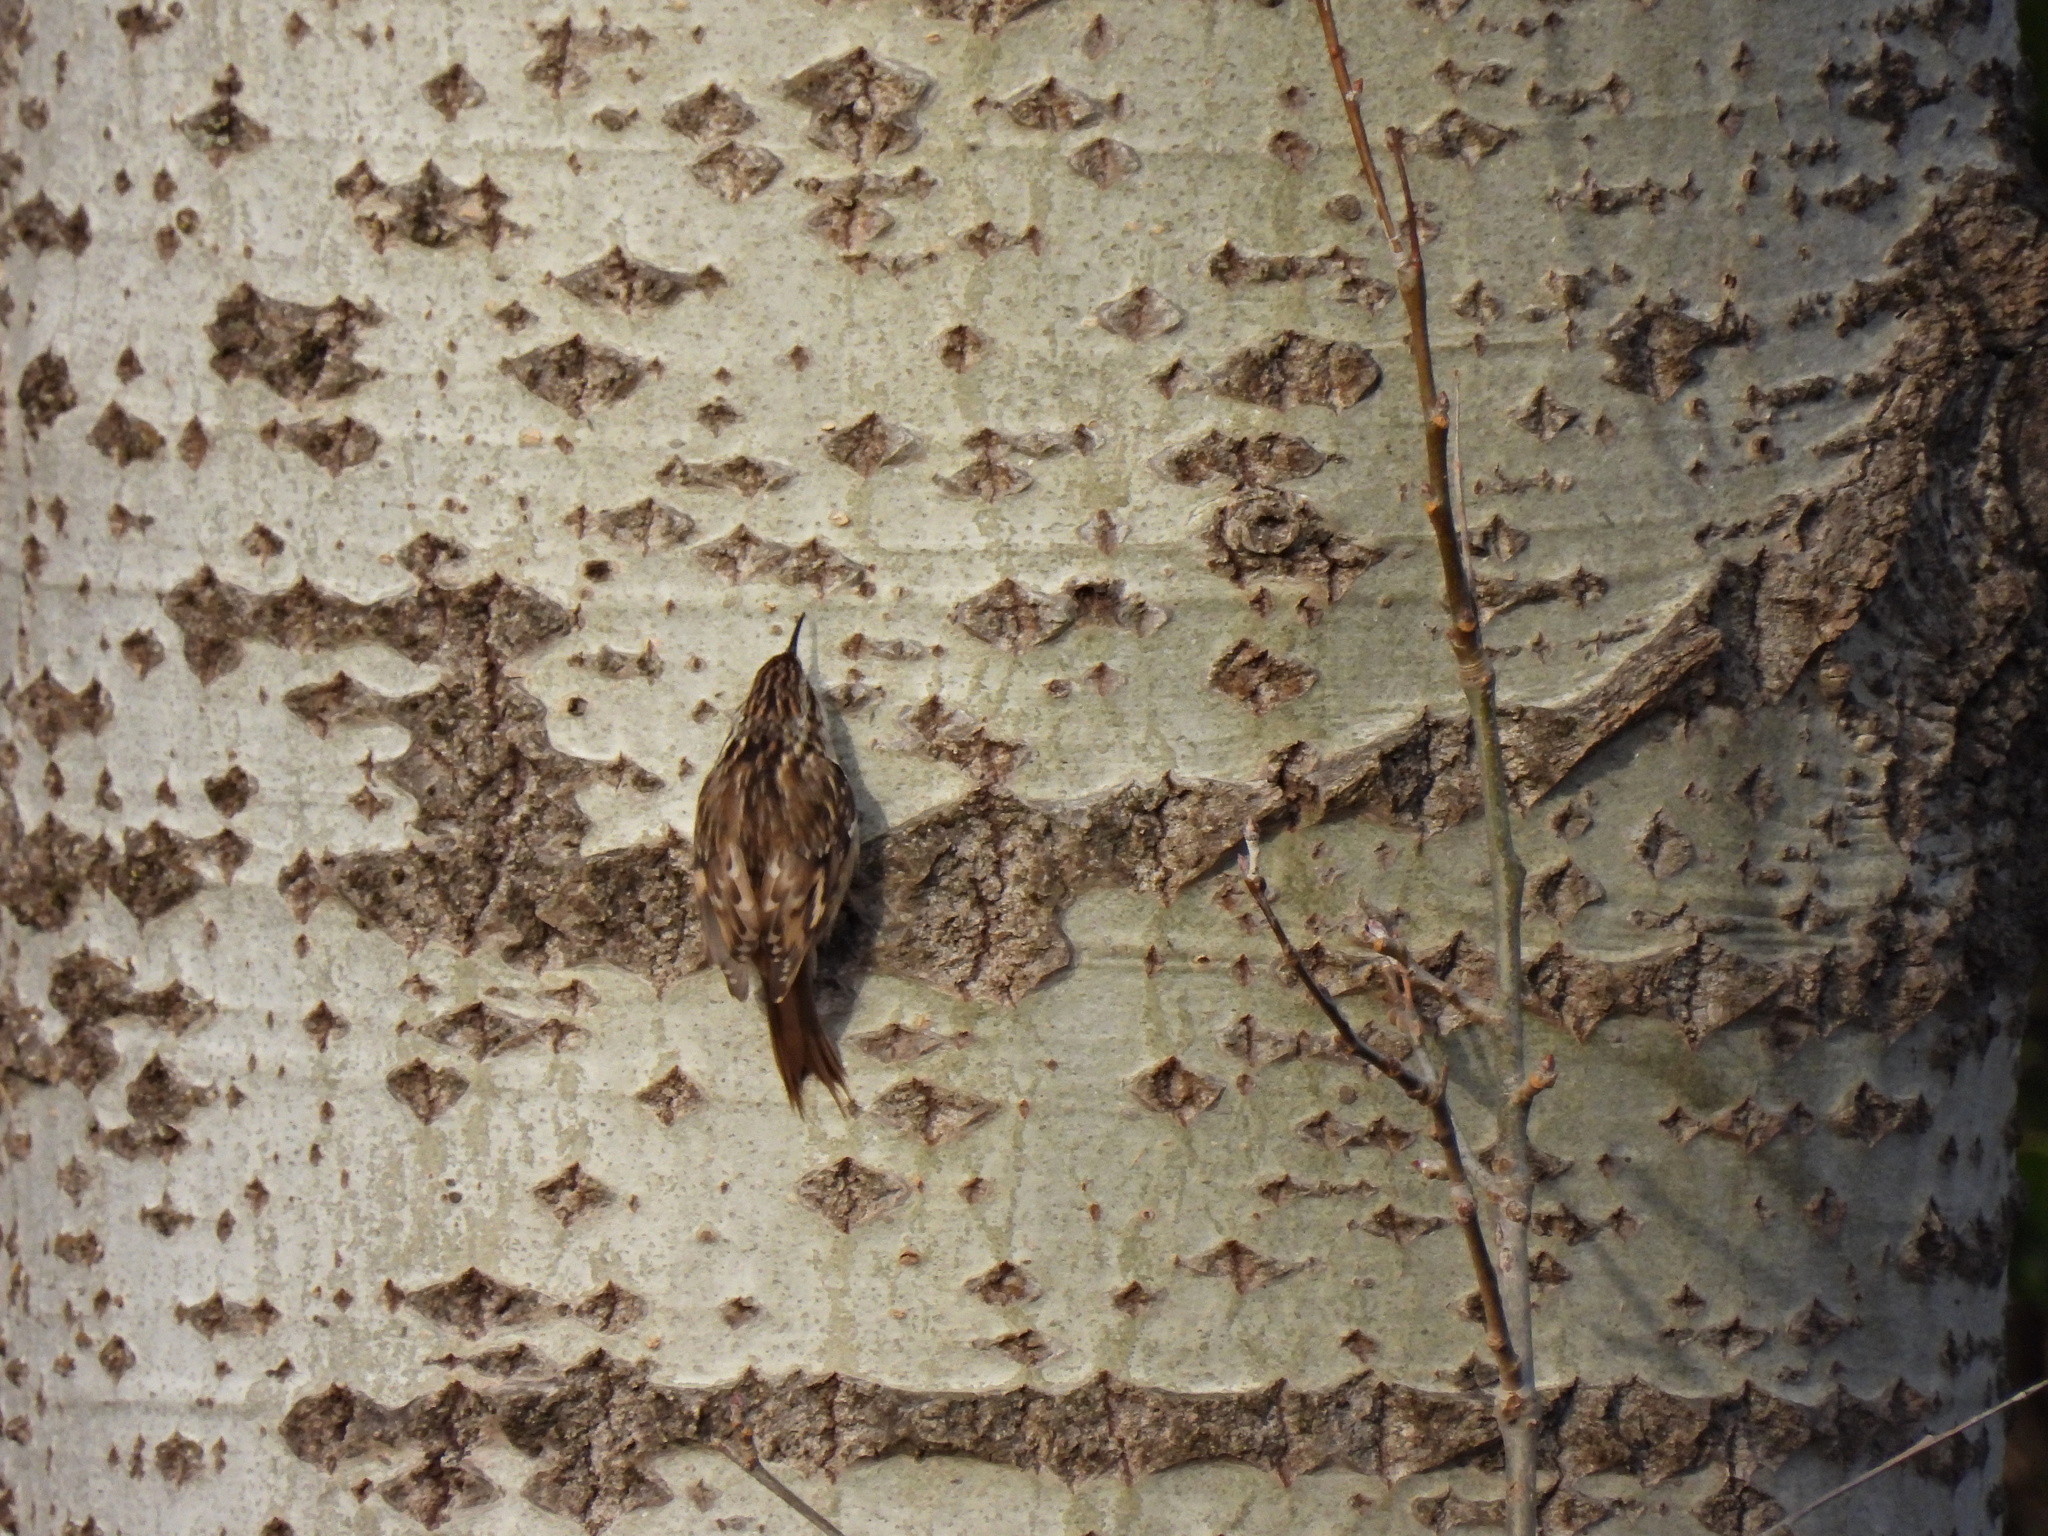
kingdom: Animalia
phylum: Chordata
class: Aves
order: Passeriformes
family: Certhiidae
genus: Certhia
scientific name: Certhia brachydactyla
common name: Short-toed treecreeper
